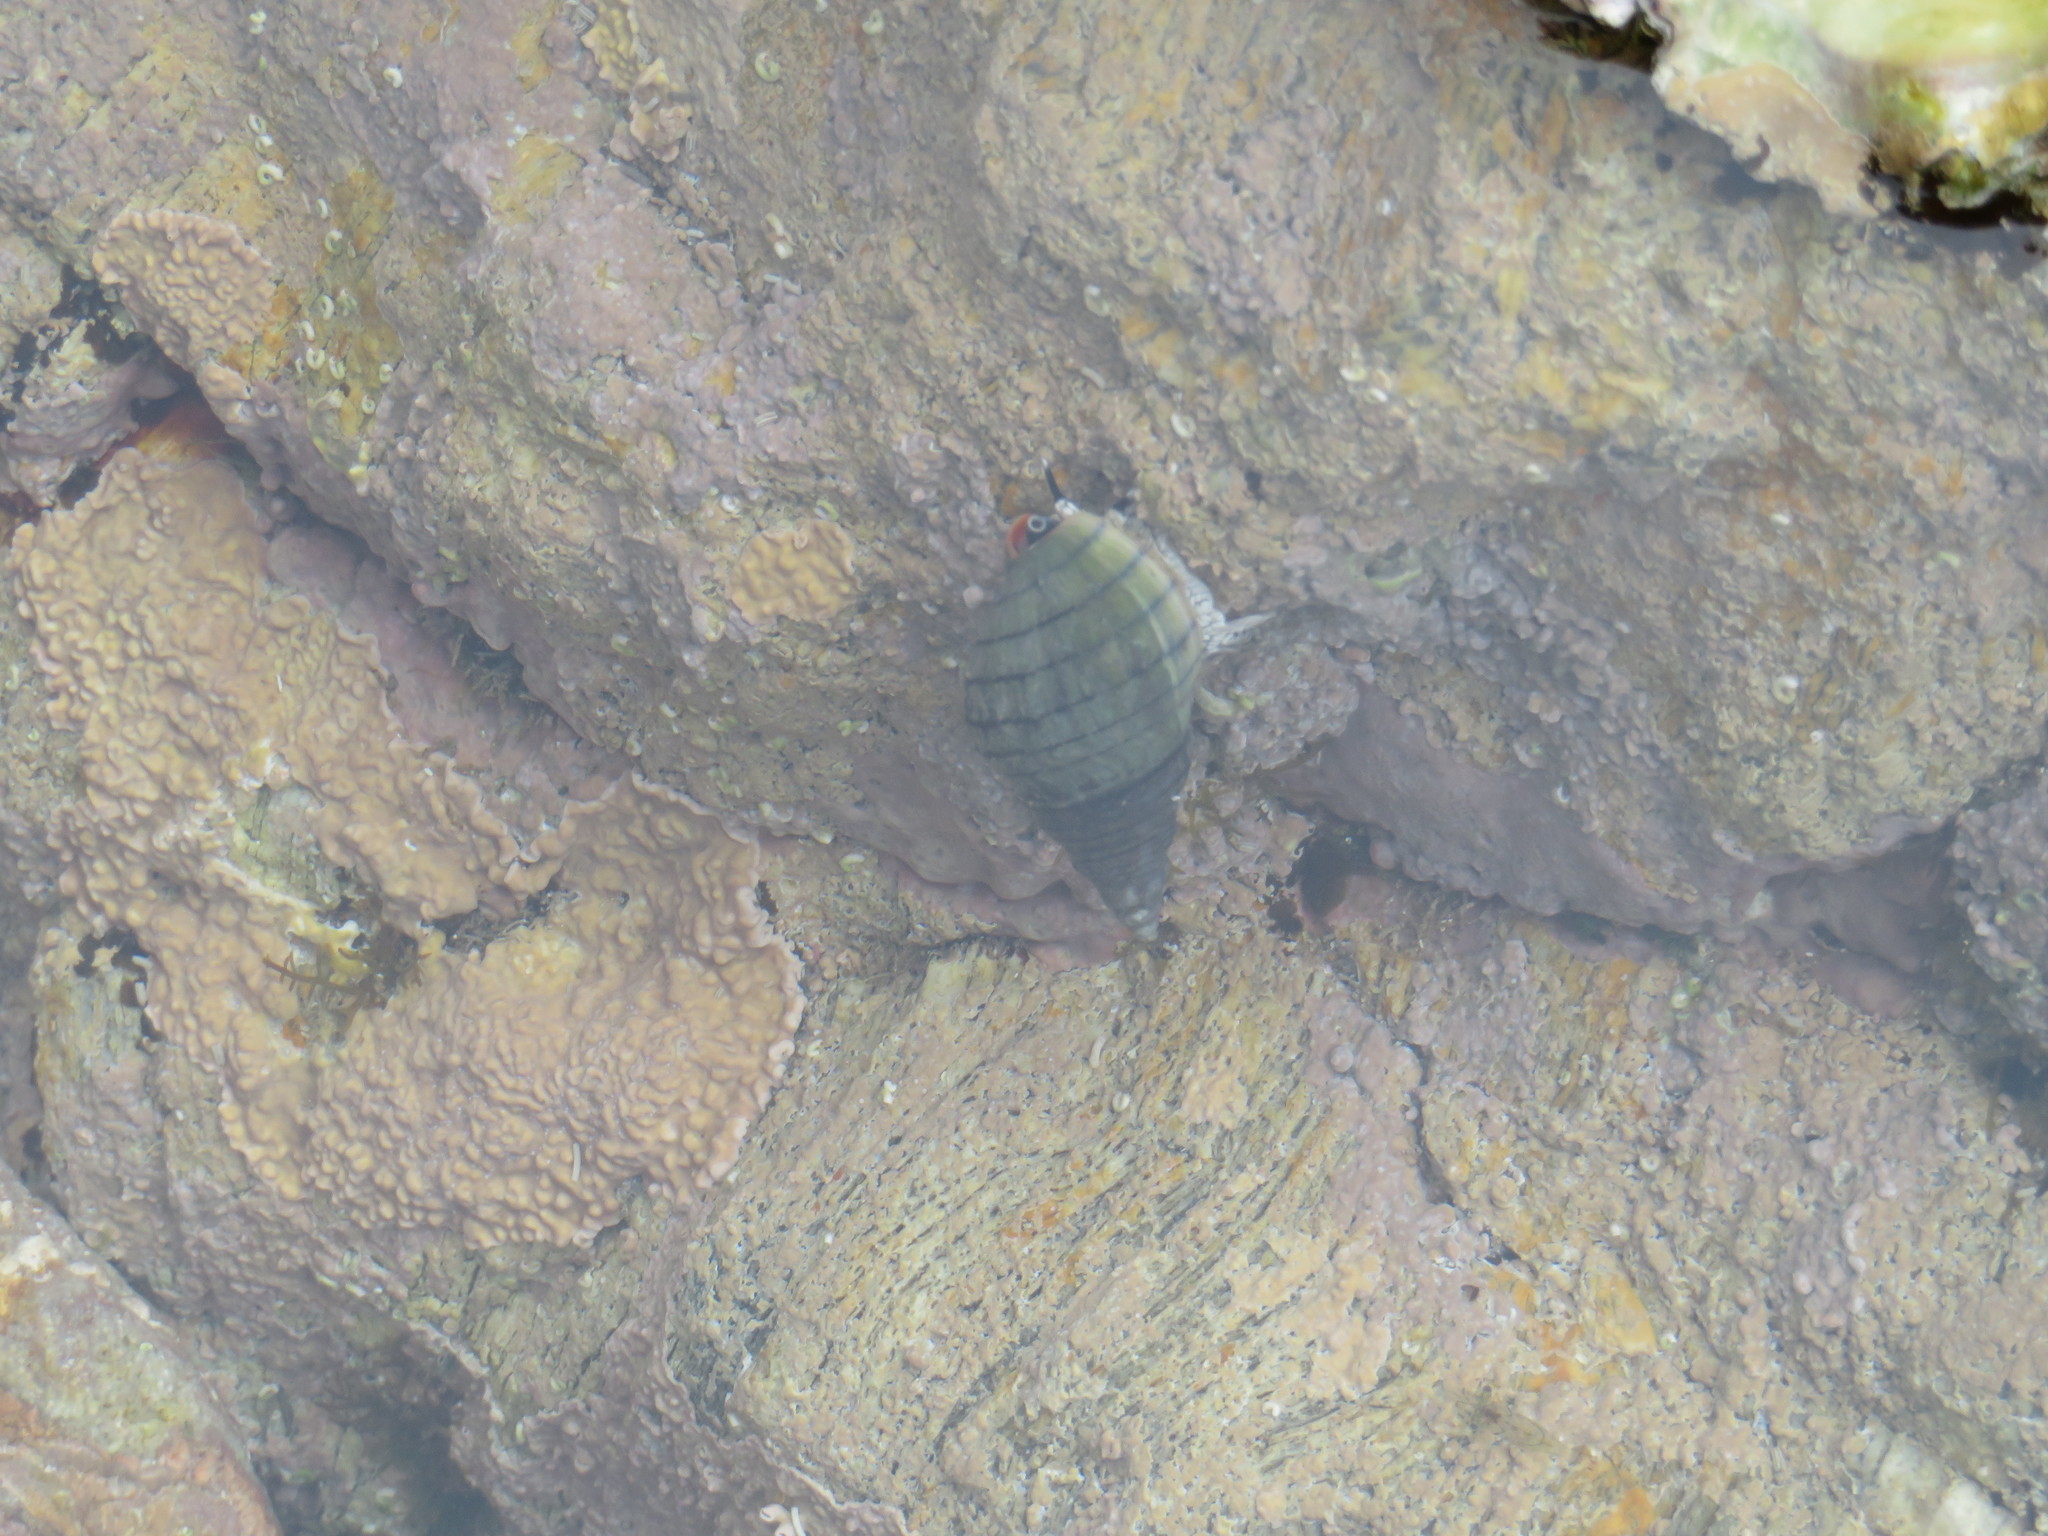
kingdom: Animalia
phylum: Mollusca
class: Gastropoda
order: Neogastropoda
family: Cominellidae
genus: Cominella
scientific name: Cominella virgata
